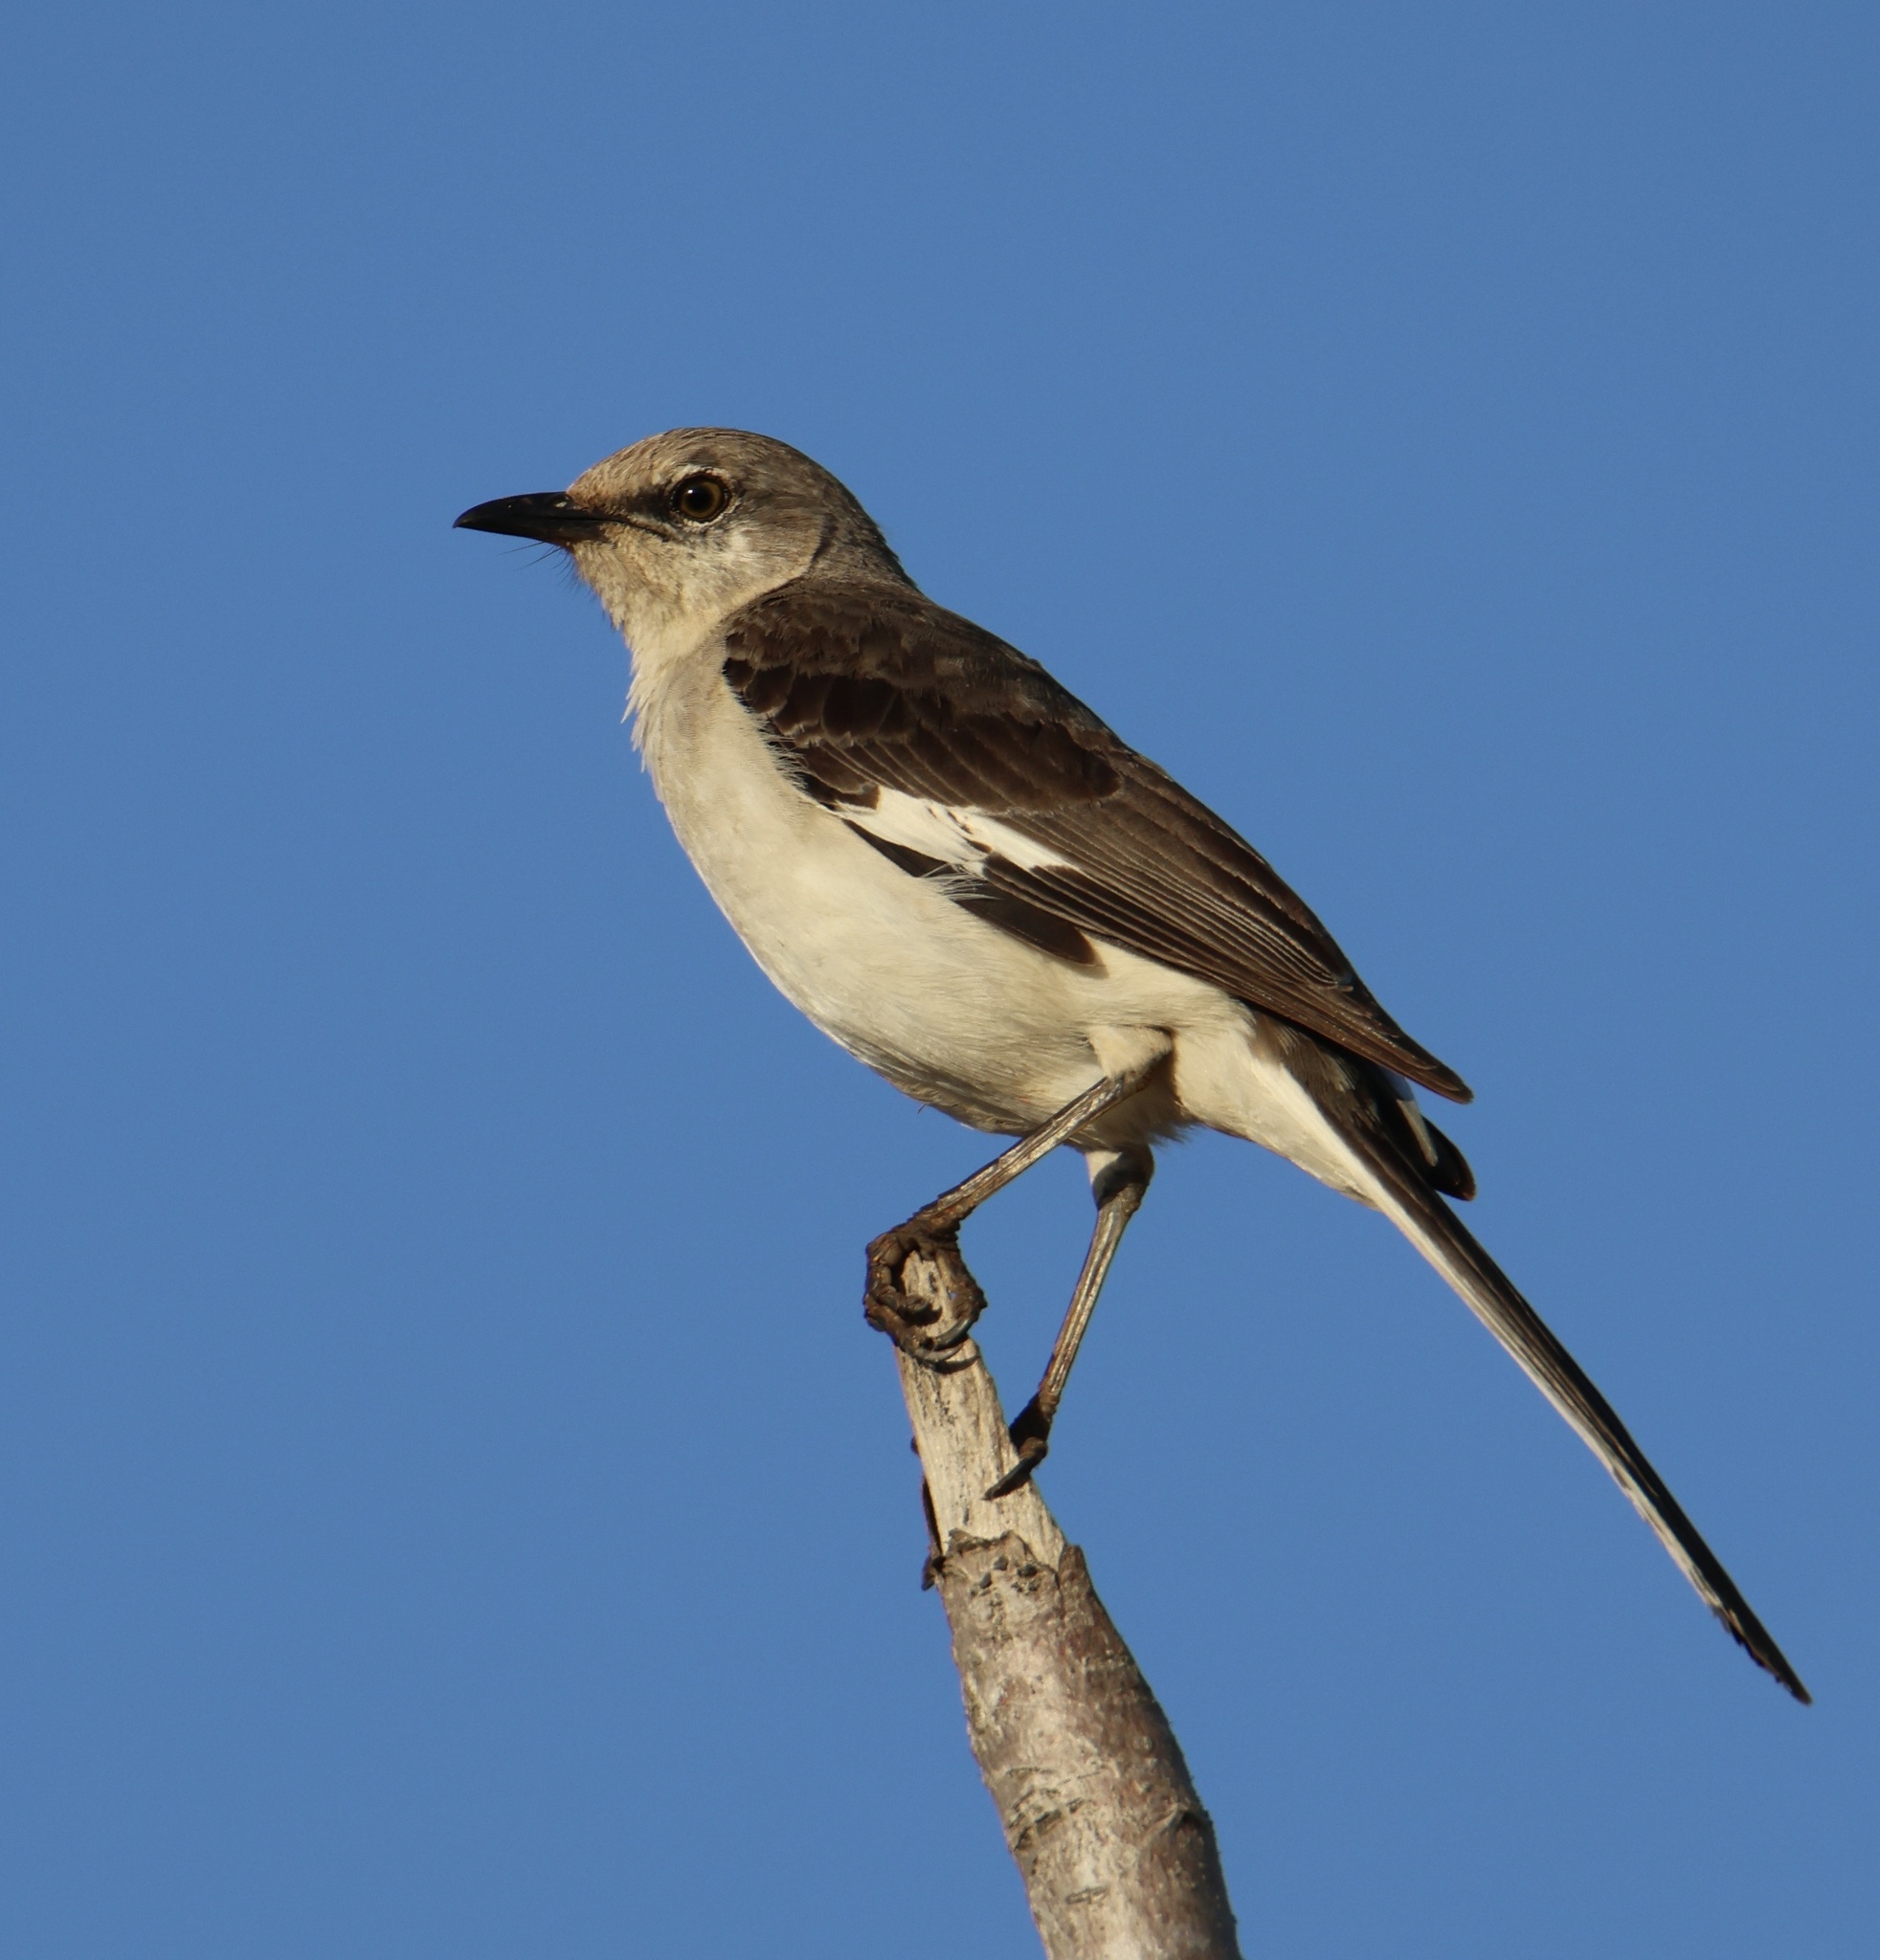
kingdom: Animalia
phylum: Chordata
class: Aves
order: Passeriformes
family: Mimidae
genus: Mimus
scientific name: Mimus polyglottos
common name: Northern mockingbird
